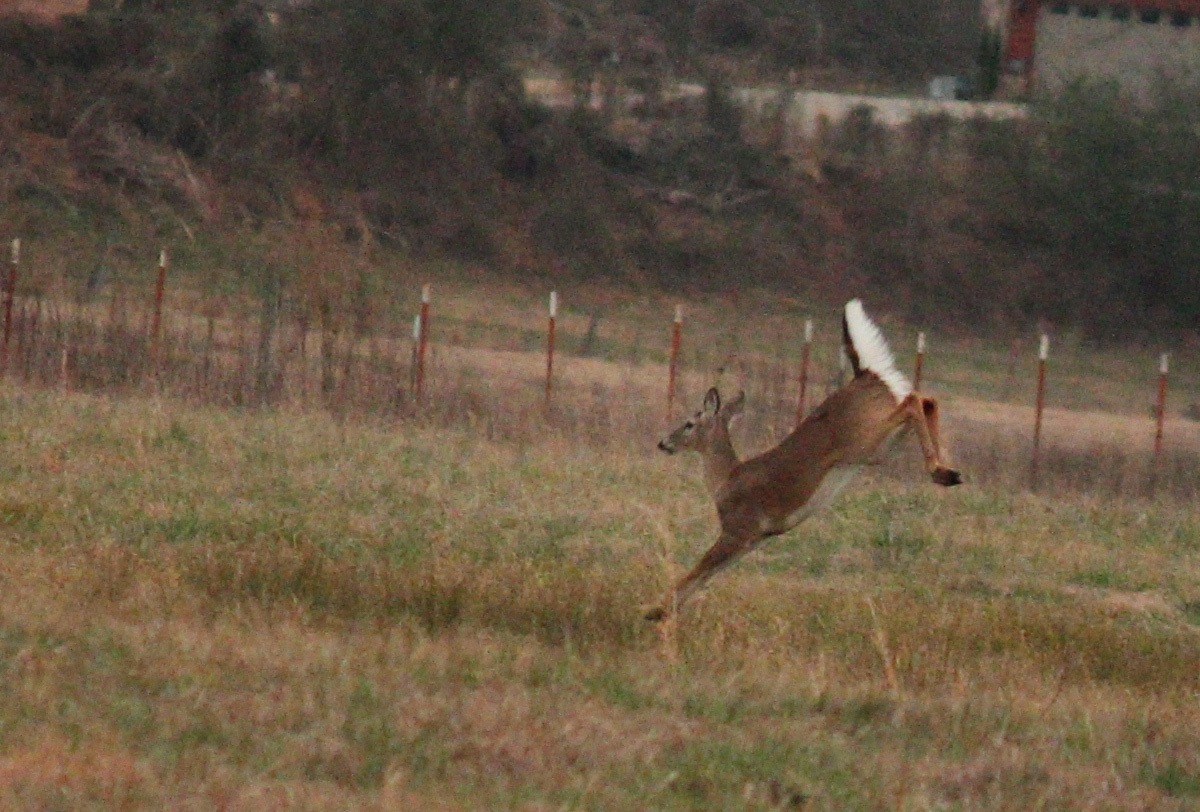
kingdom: Animalia
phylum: Chordata
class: Mammalia
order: Artiodactyla
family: Cervidae
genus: Odocoileus
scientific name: Odocoileus virginianus
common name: White-tailed deer
